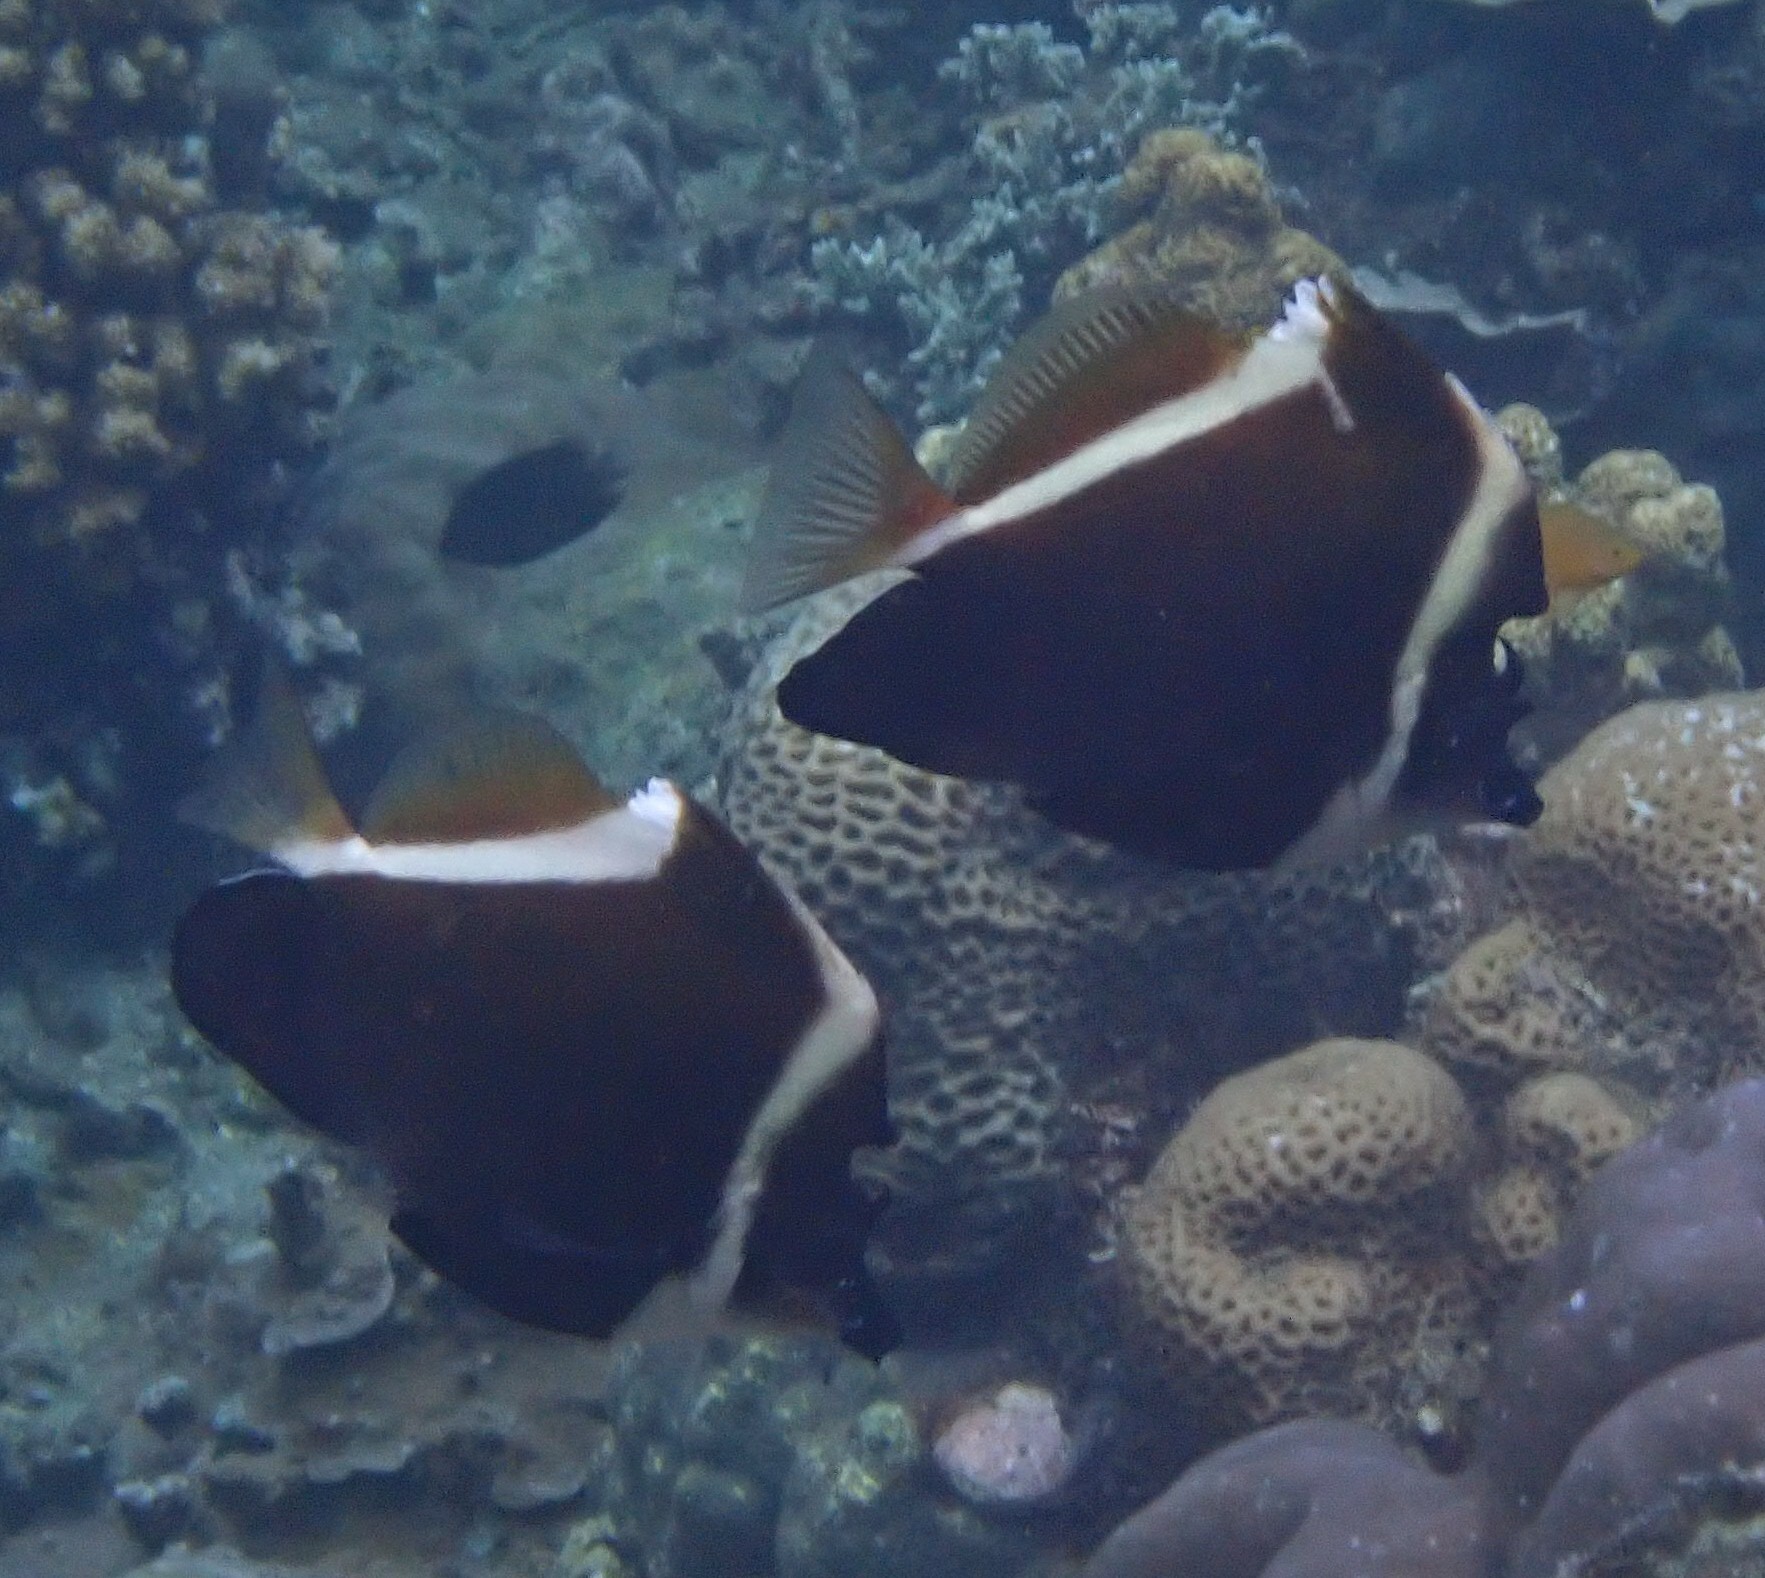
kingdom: Animalia
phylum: Chordata
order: Perciformes
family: Chaetodontidae
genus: Heniochus
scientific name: Heniochus varius
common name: Horned bannerfish
